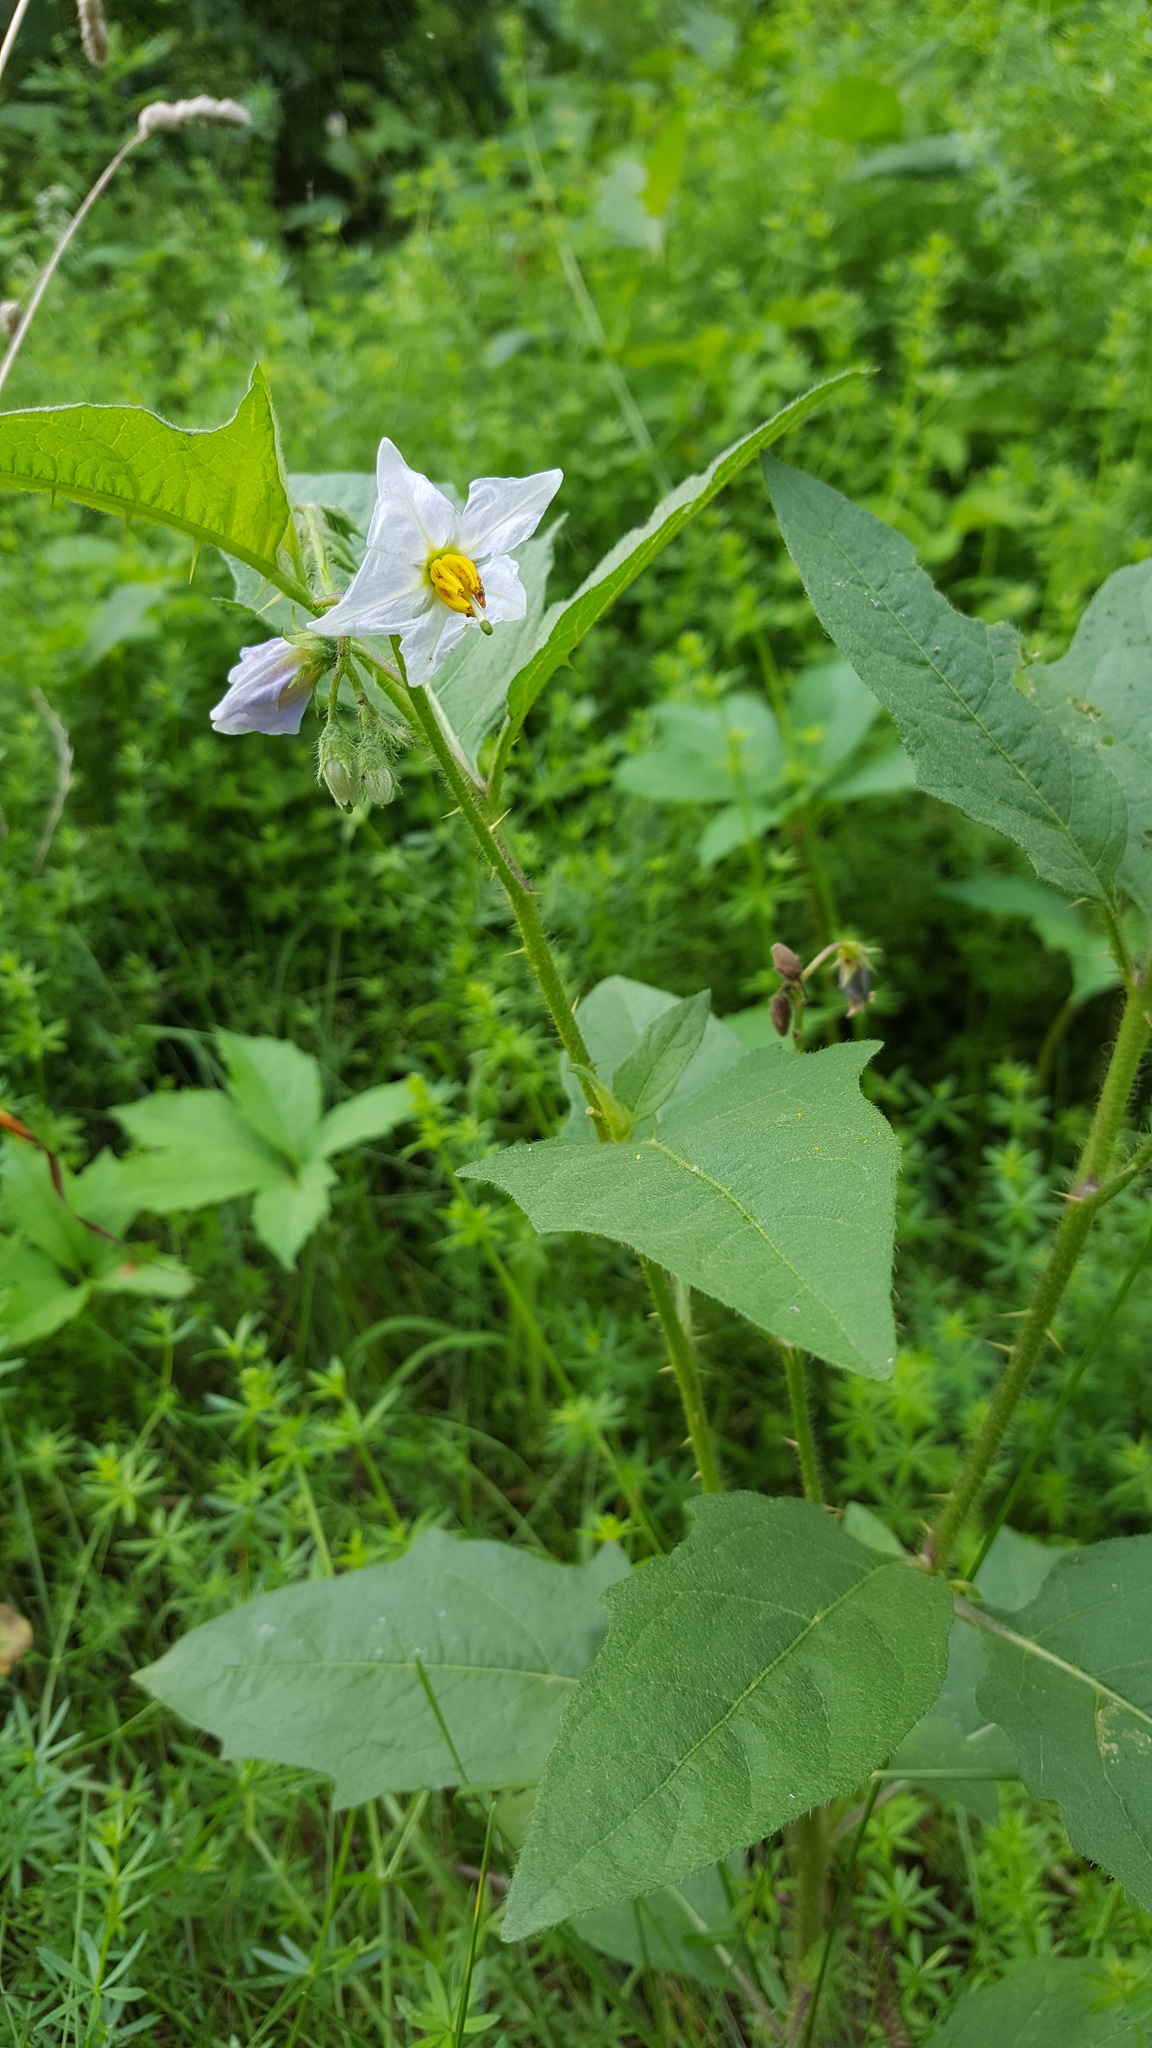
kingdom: Plantae
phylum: Tracheophyta
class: Magnoliopsida
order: Solanales
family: Solanaceae
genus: Solanum
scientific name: Solanum carolinense
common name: Horse-nettle
